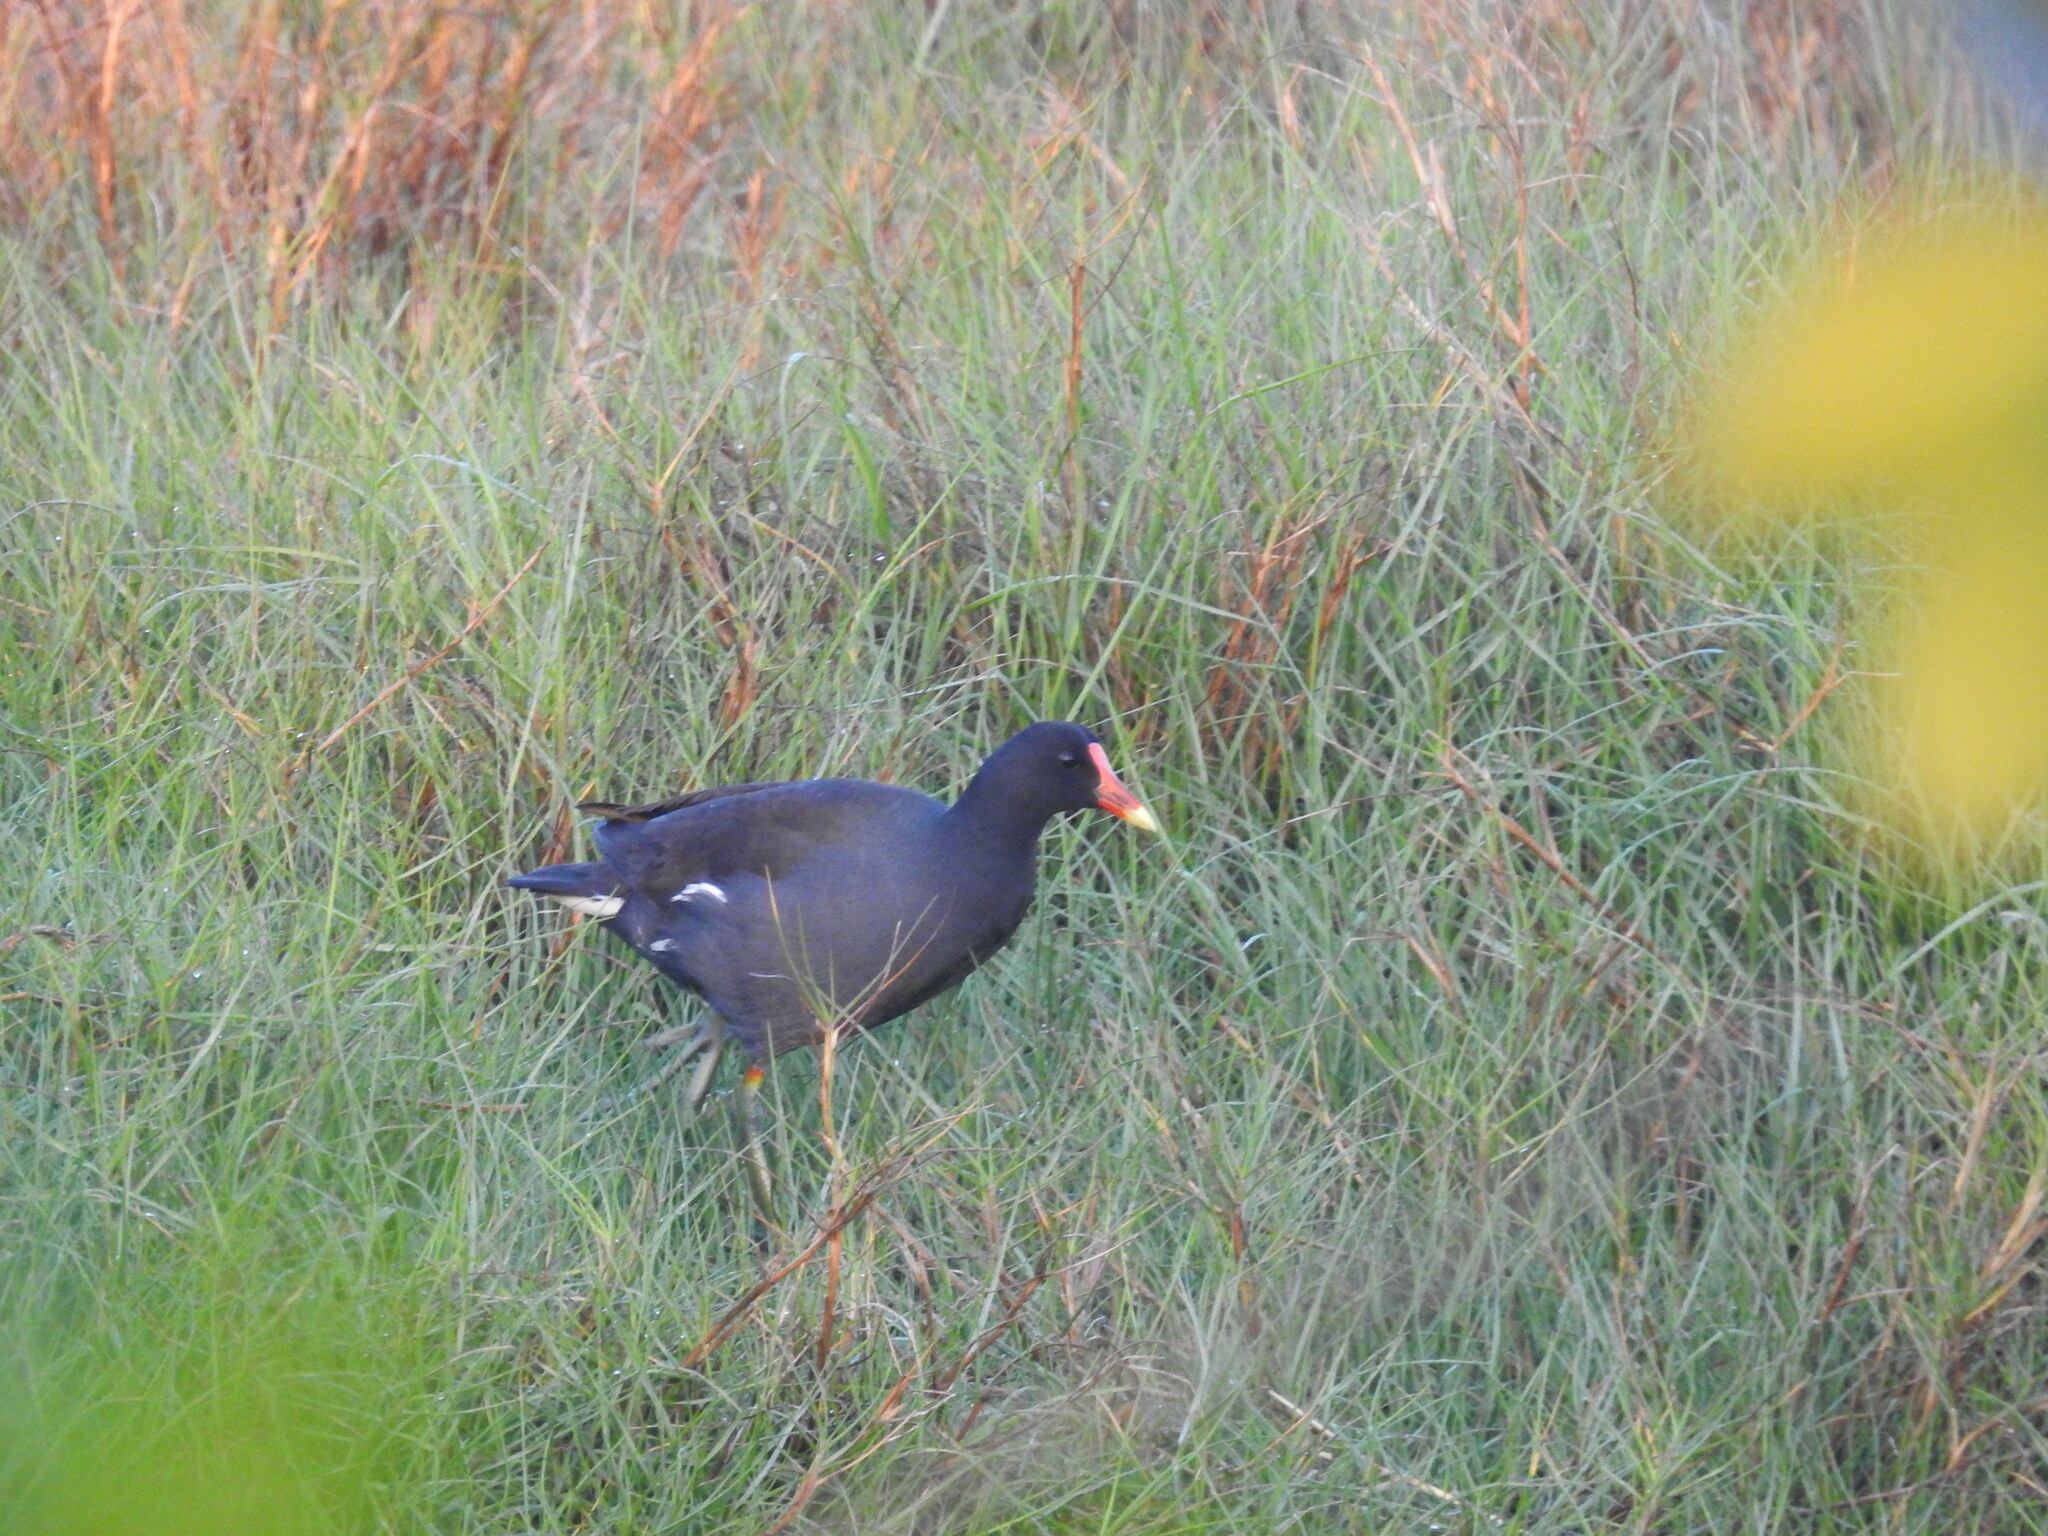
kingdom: Animalia
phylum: Chordata
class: Aves
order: Gruiformes
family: Rallidae
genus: Gallinula
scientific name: Gallinula chloropus
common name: Common moorhen
